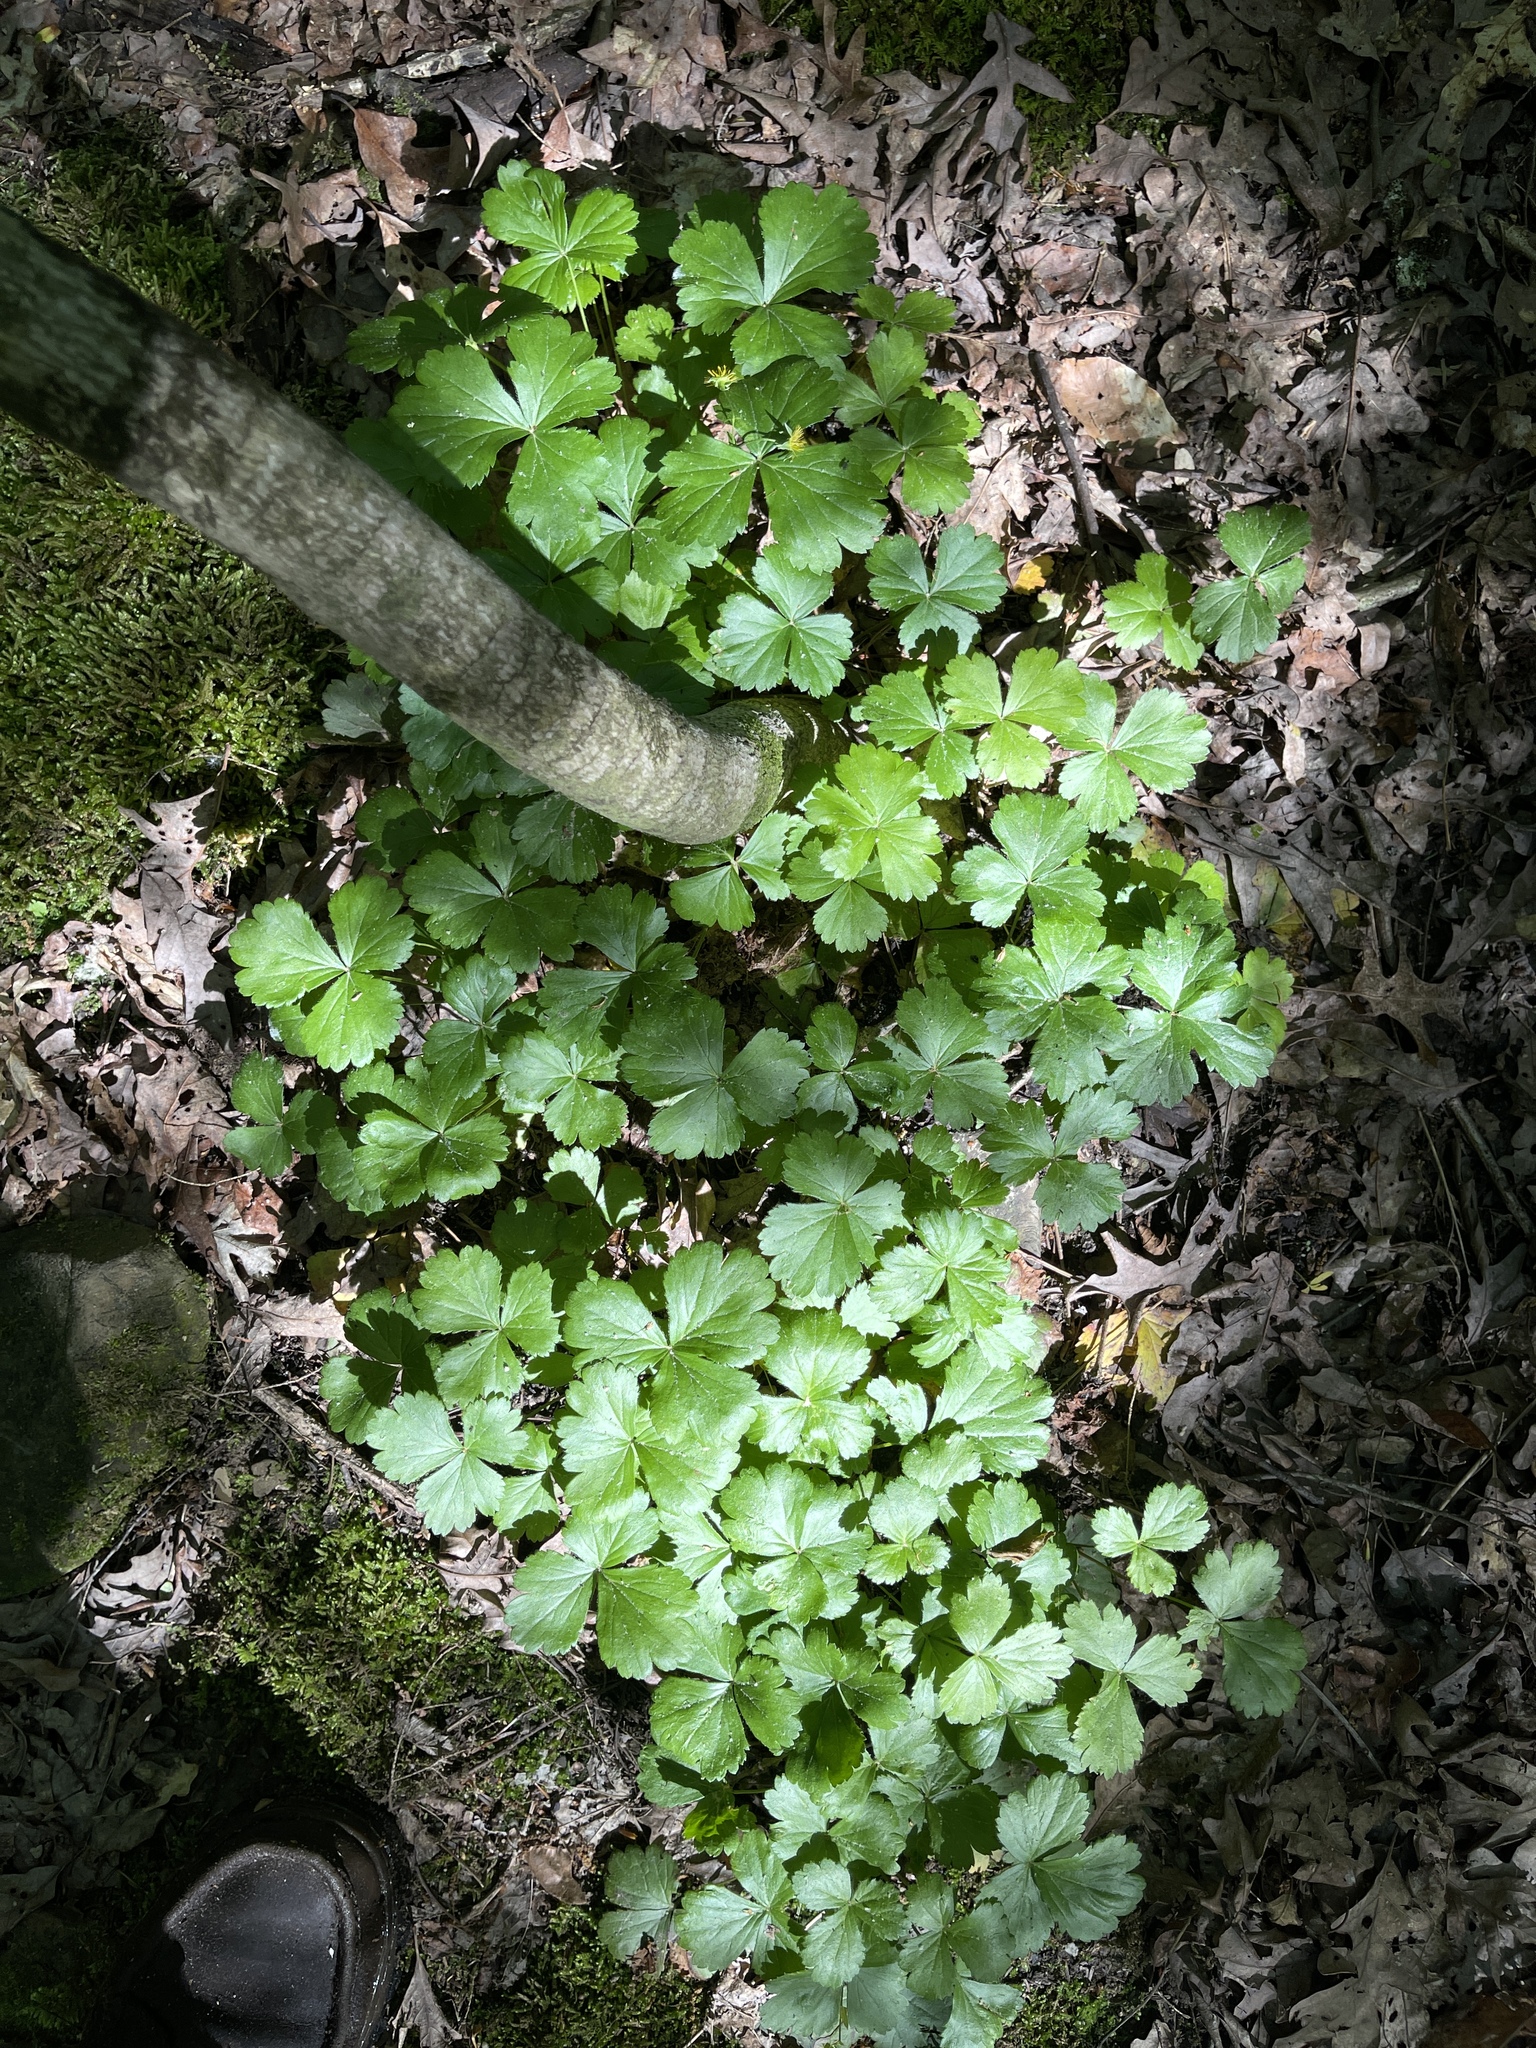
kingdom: Plantae
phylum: Tracheophyta
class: Magnoliopsida
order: Rosales
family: Rosaceae
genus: Geum
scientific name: Geum fragarioides
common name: Appalachian barren strawberry
